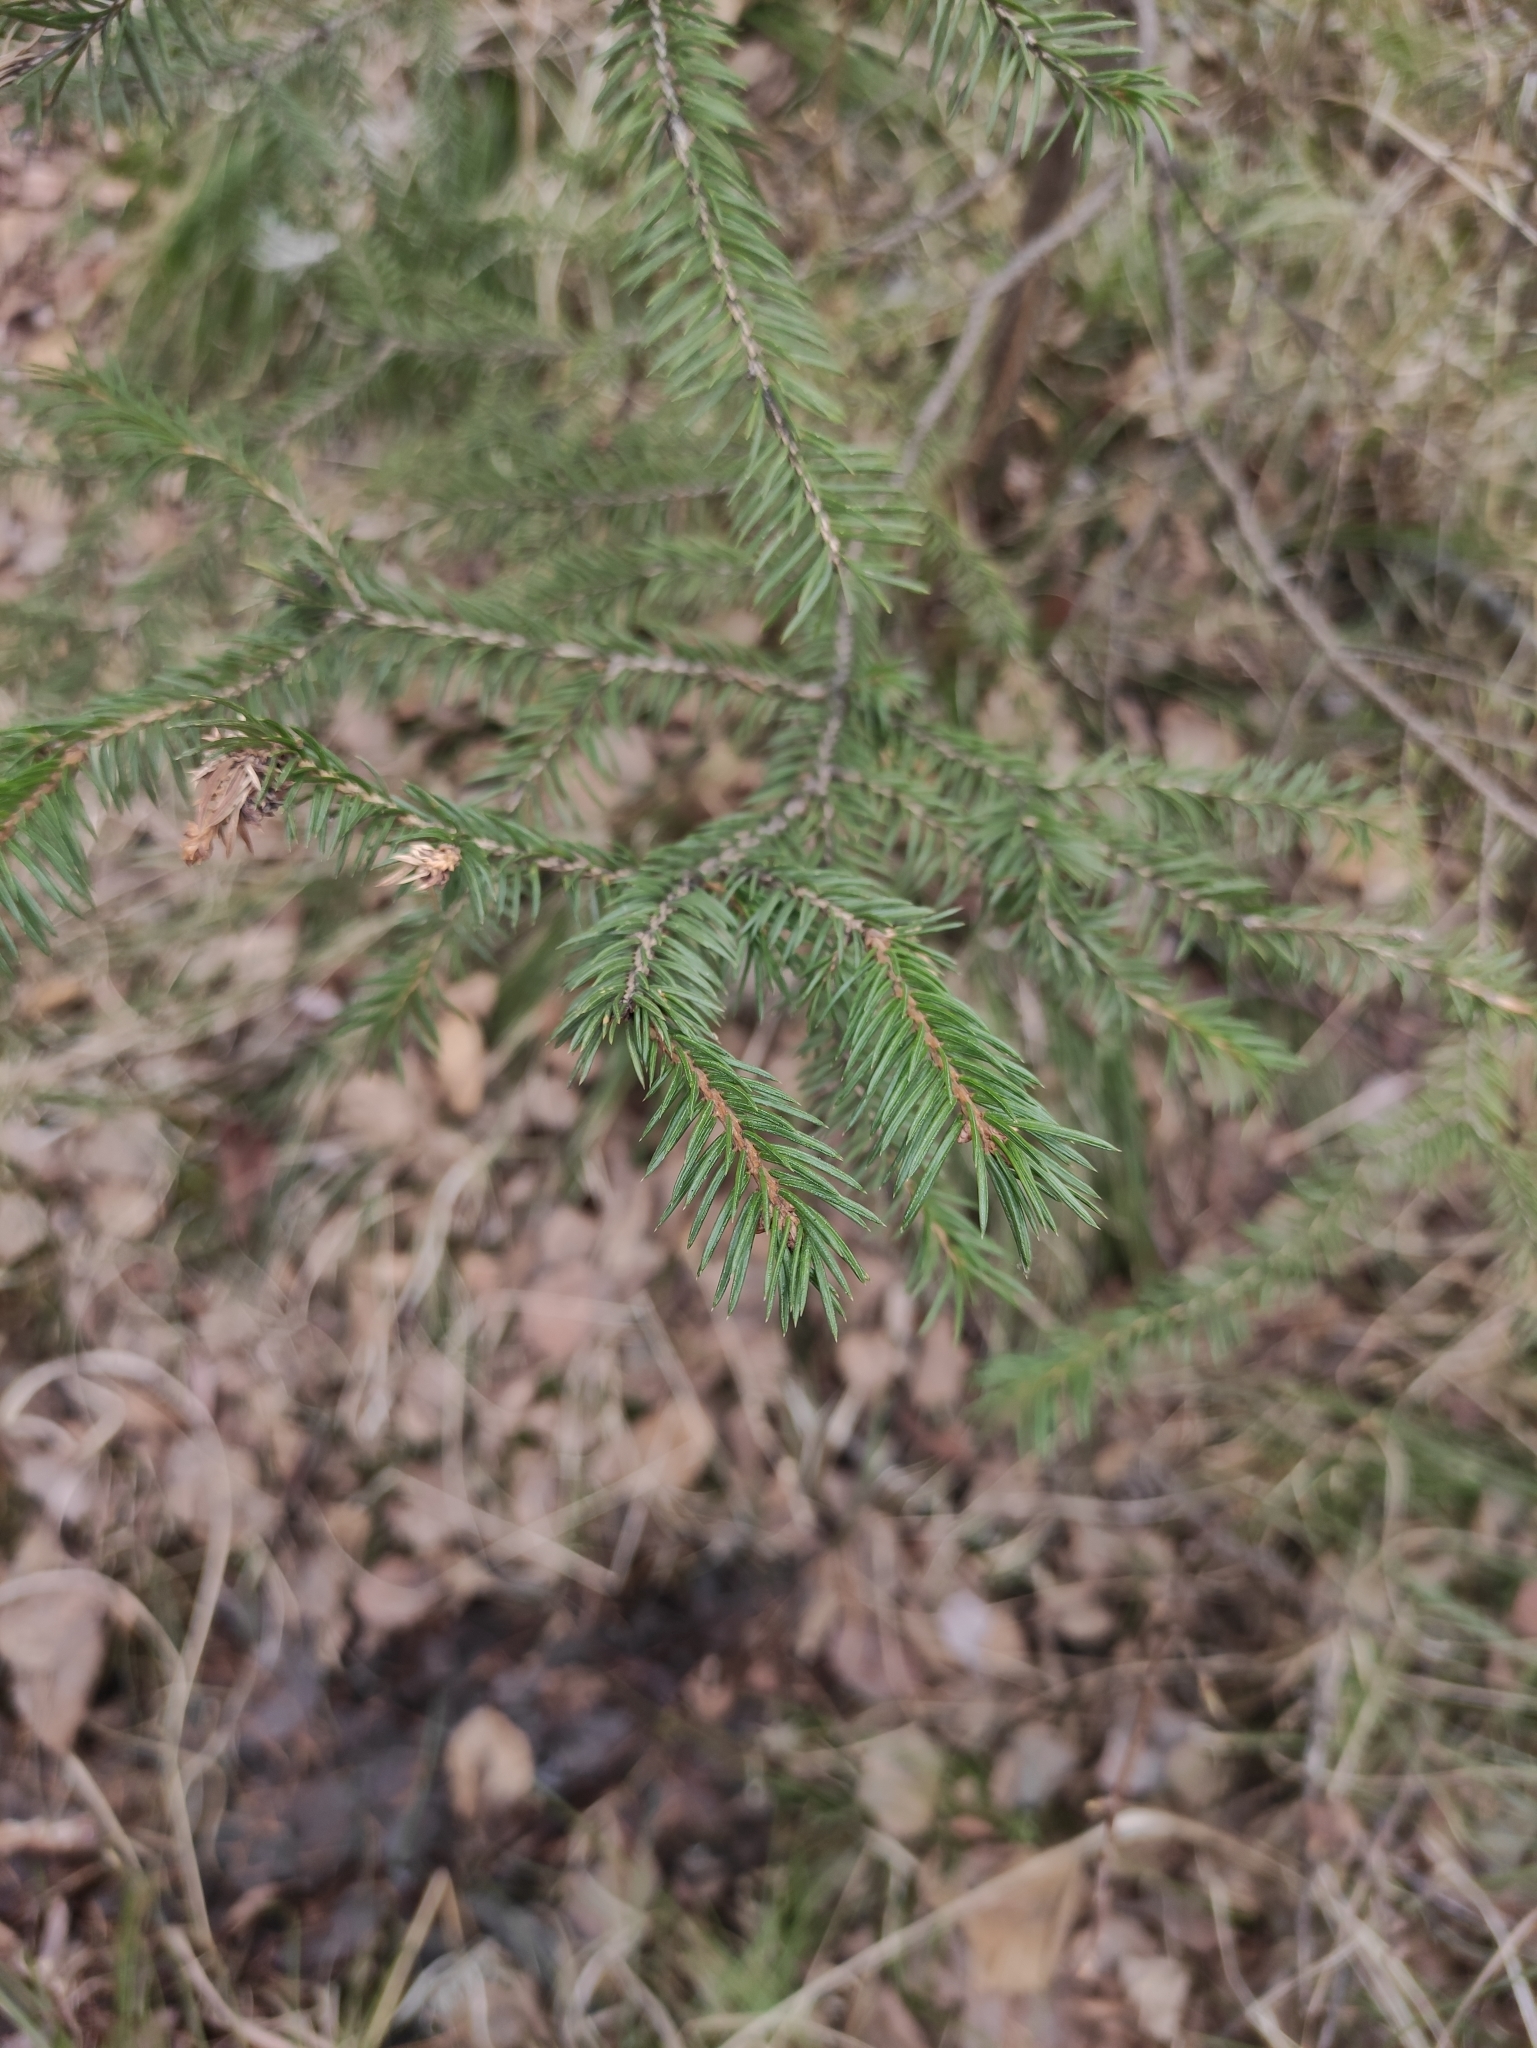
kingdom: Plantae
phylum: Tracheophyta
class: Pinopsida
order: Pinales
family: Pinaceae
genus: Picea
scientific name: Picea obovata
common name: Siberian spruce
